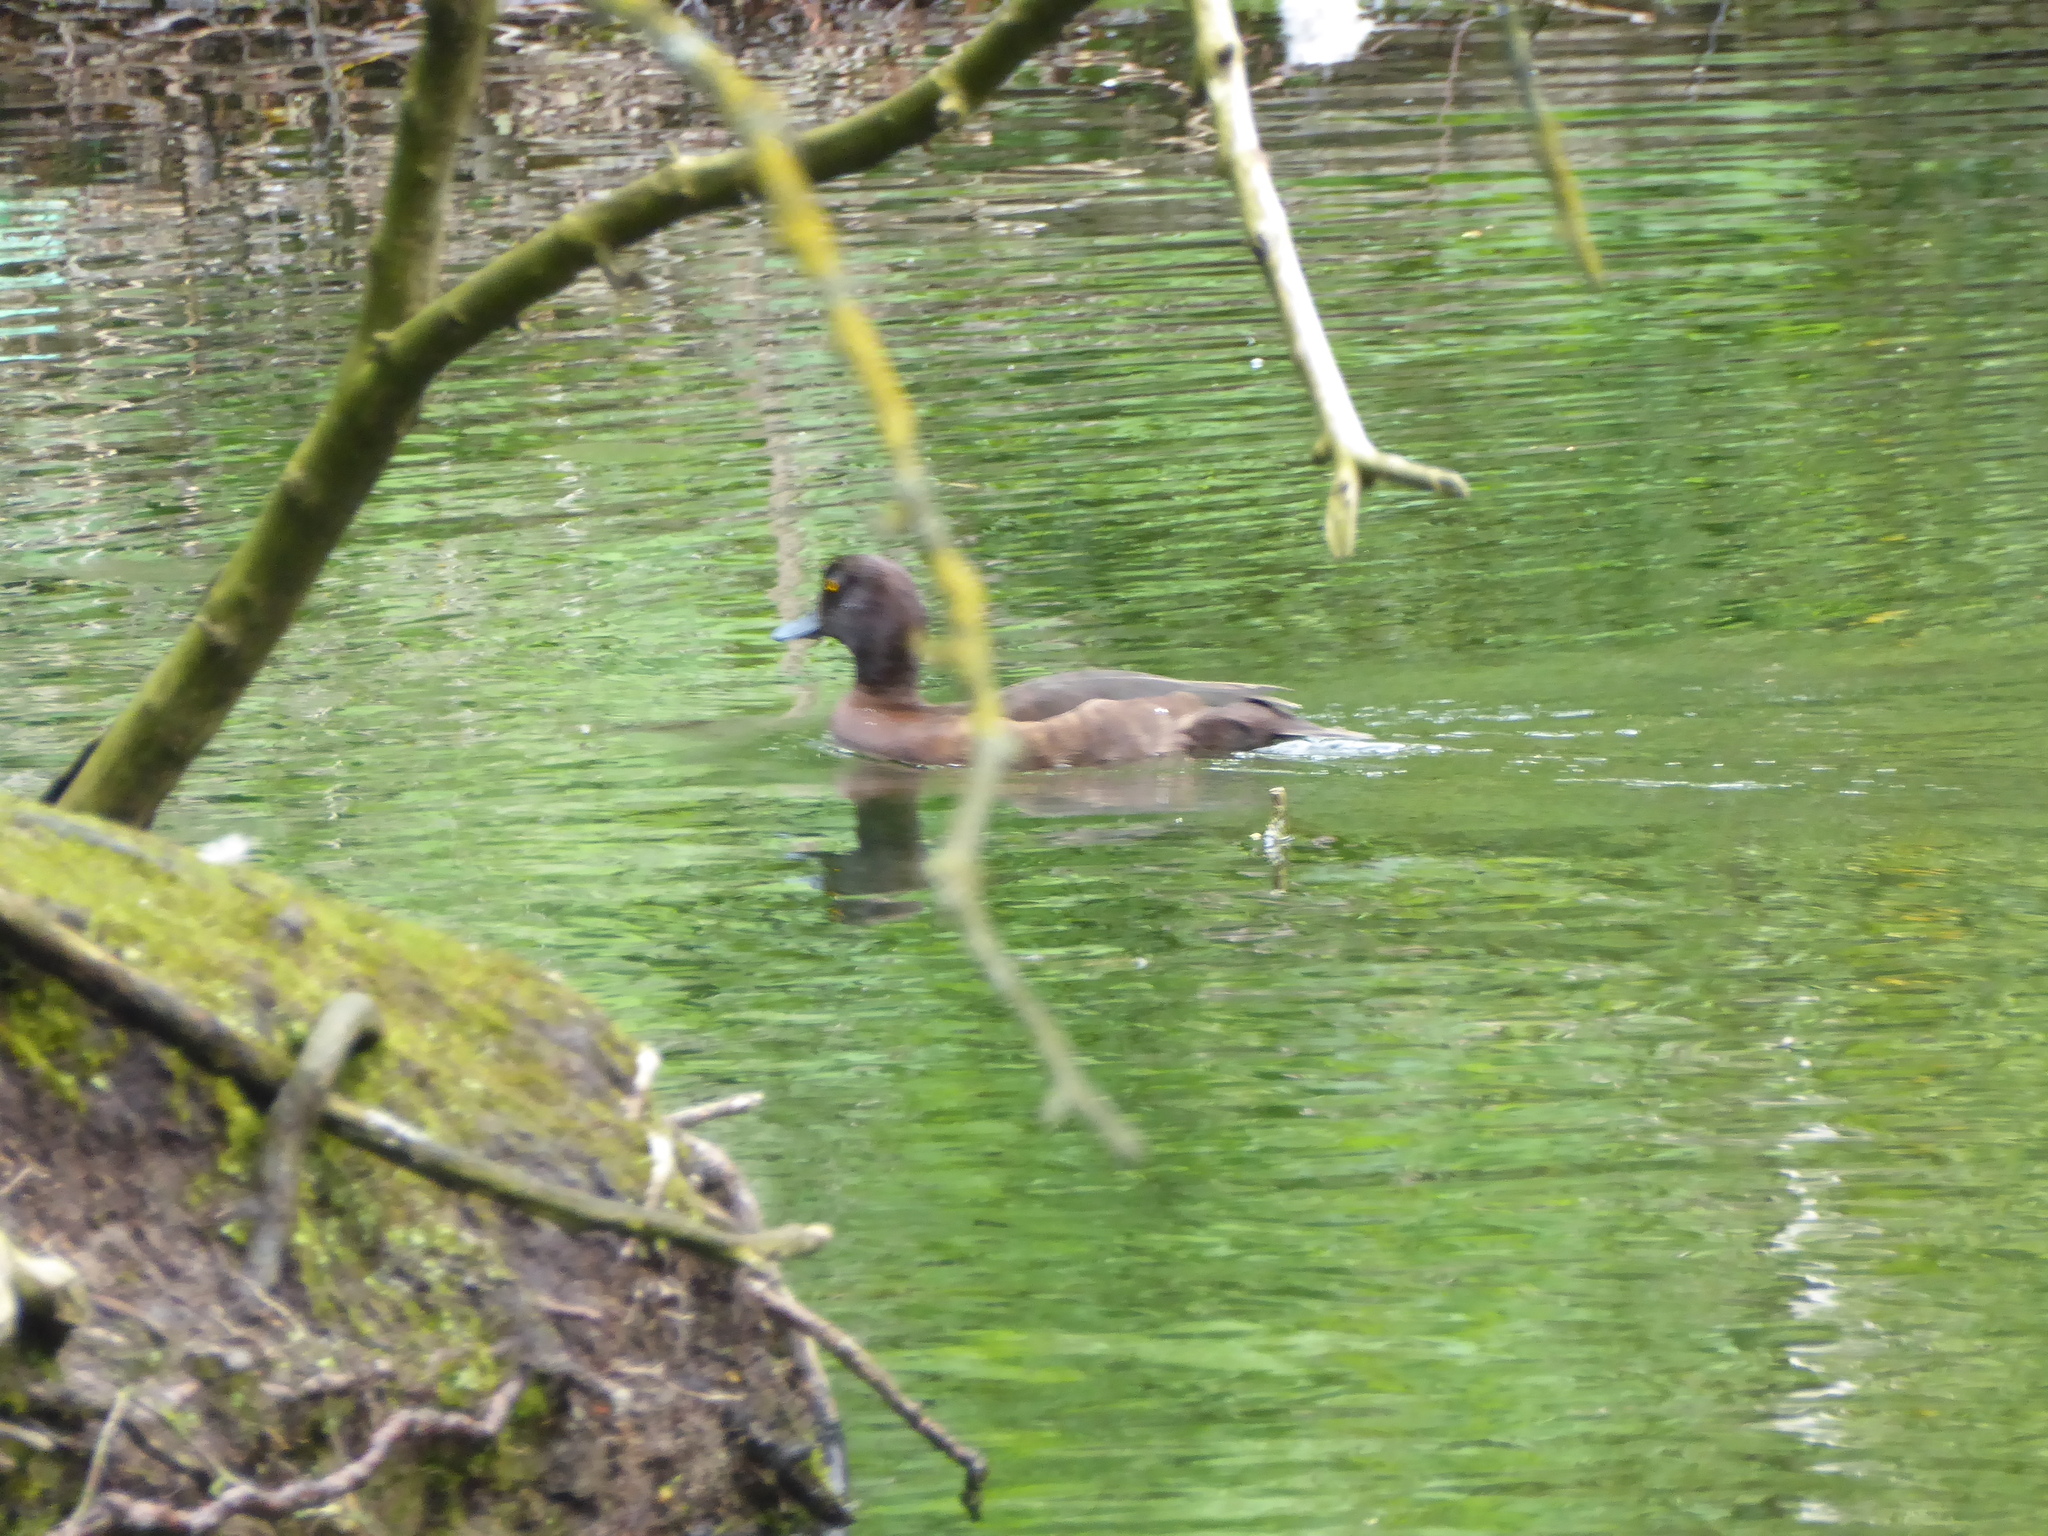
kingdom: Animalia
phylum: Chordata
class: Aves
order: Anseriformes
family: Anatidae
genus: Aythya
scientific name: Aythya fuligula
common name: Tufted duck
